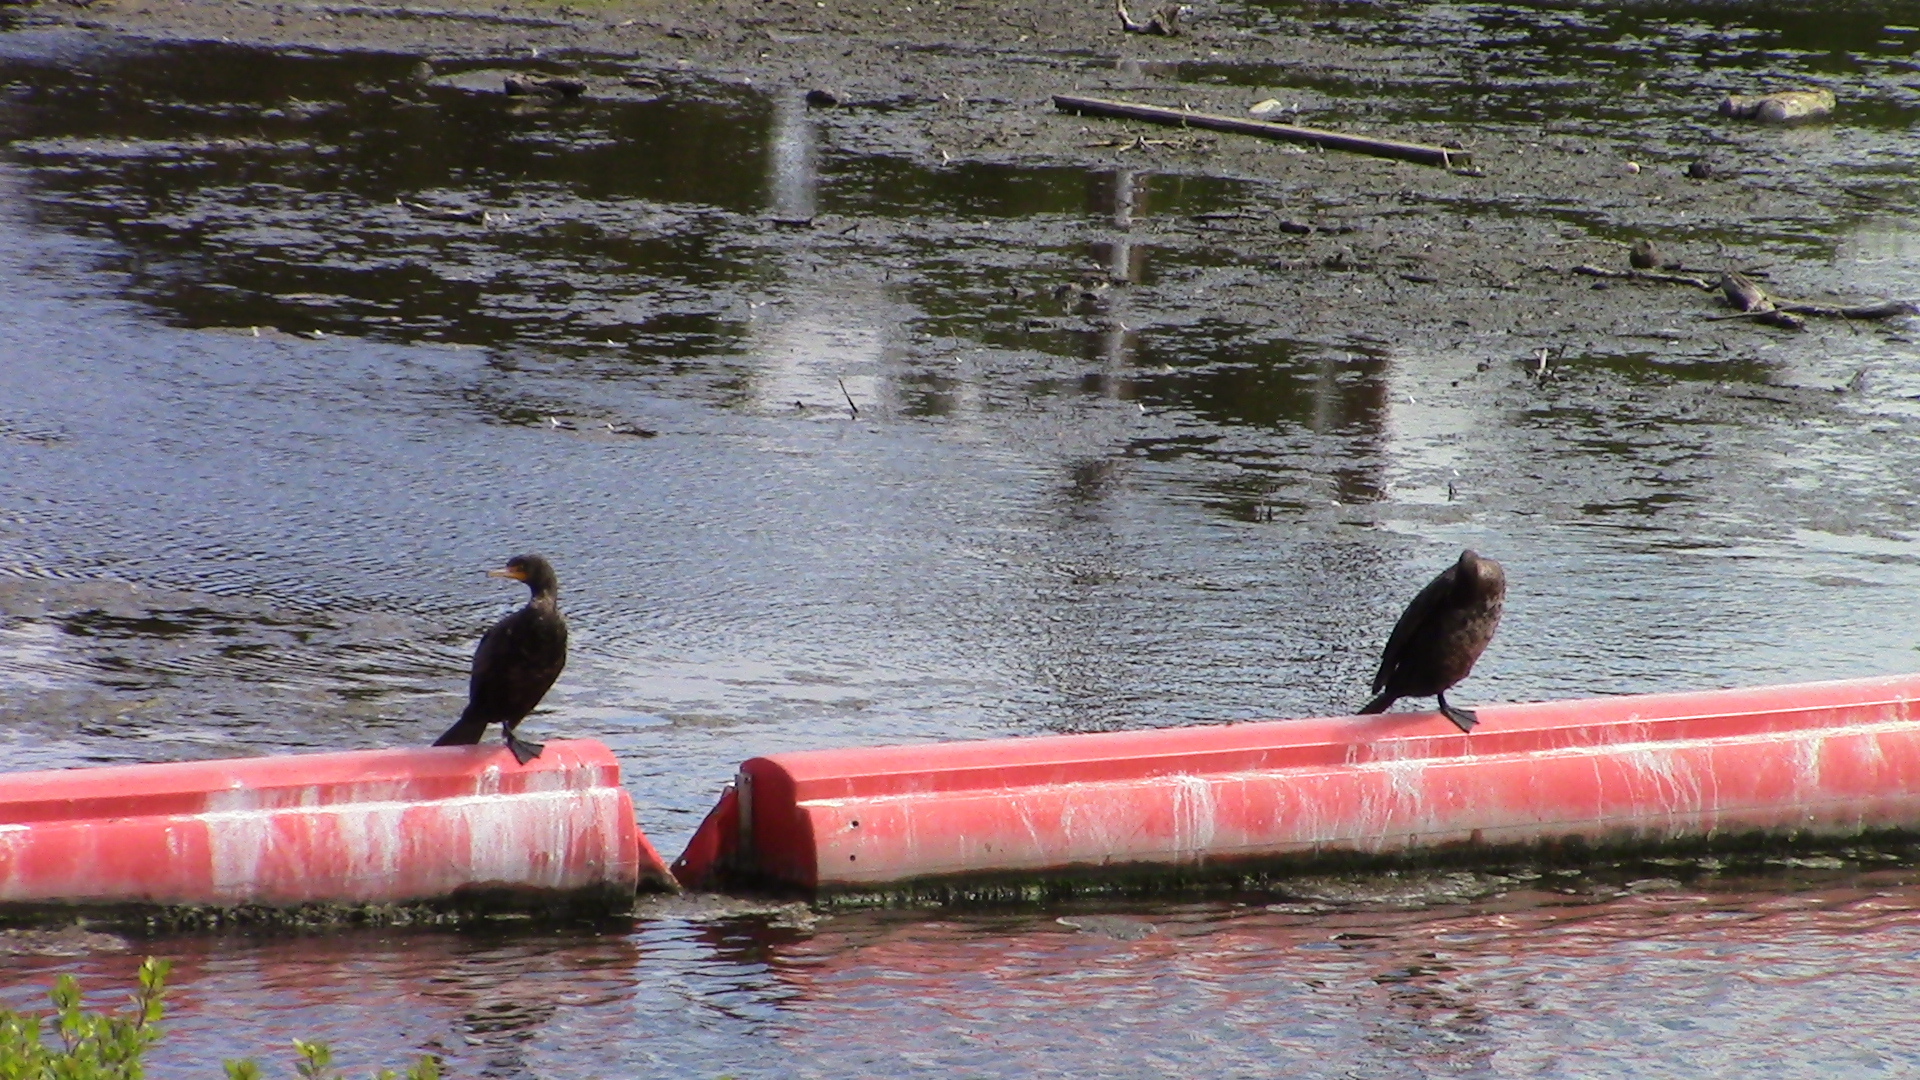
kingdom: Animalia
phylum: Chordata
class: Aves
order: Suliformes
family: Phalacrocoracidae
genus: Phalacrocorax
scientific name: Phalacrocorax auritus
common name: Double-crested cormorant
